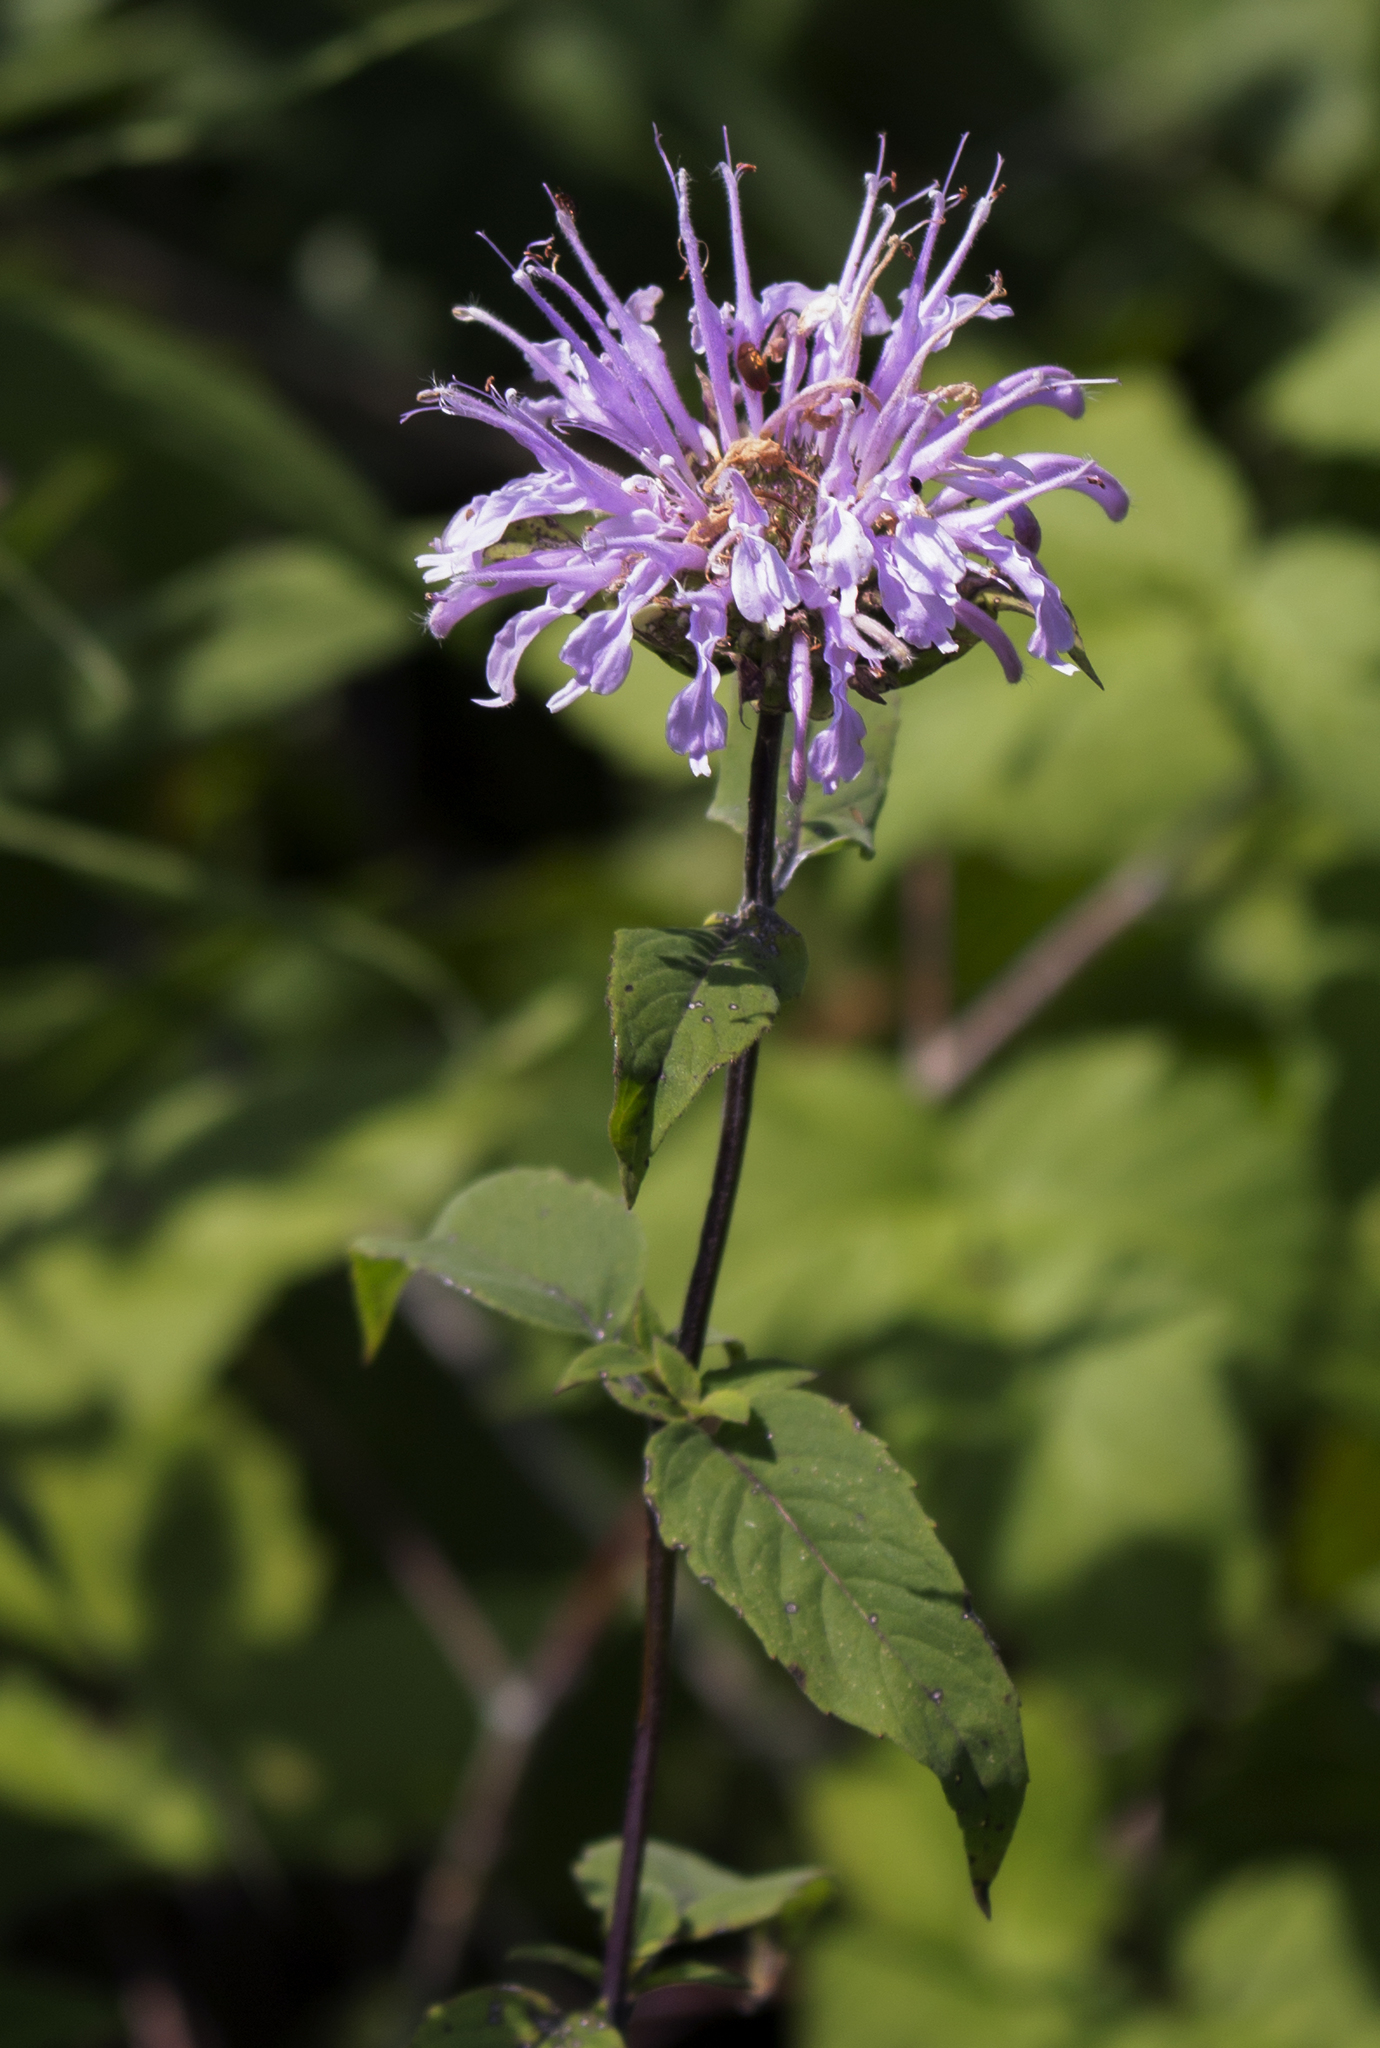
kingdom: Plantae
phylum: Tracheophyta
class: Magnoliopsida
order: Lamiales
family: Lamiaceae
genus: Monarda
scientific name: Monarda fistulosa
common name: Purple beebalm
